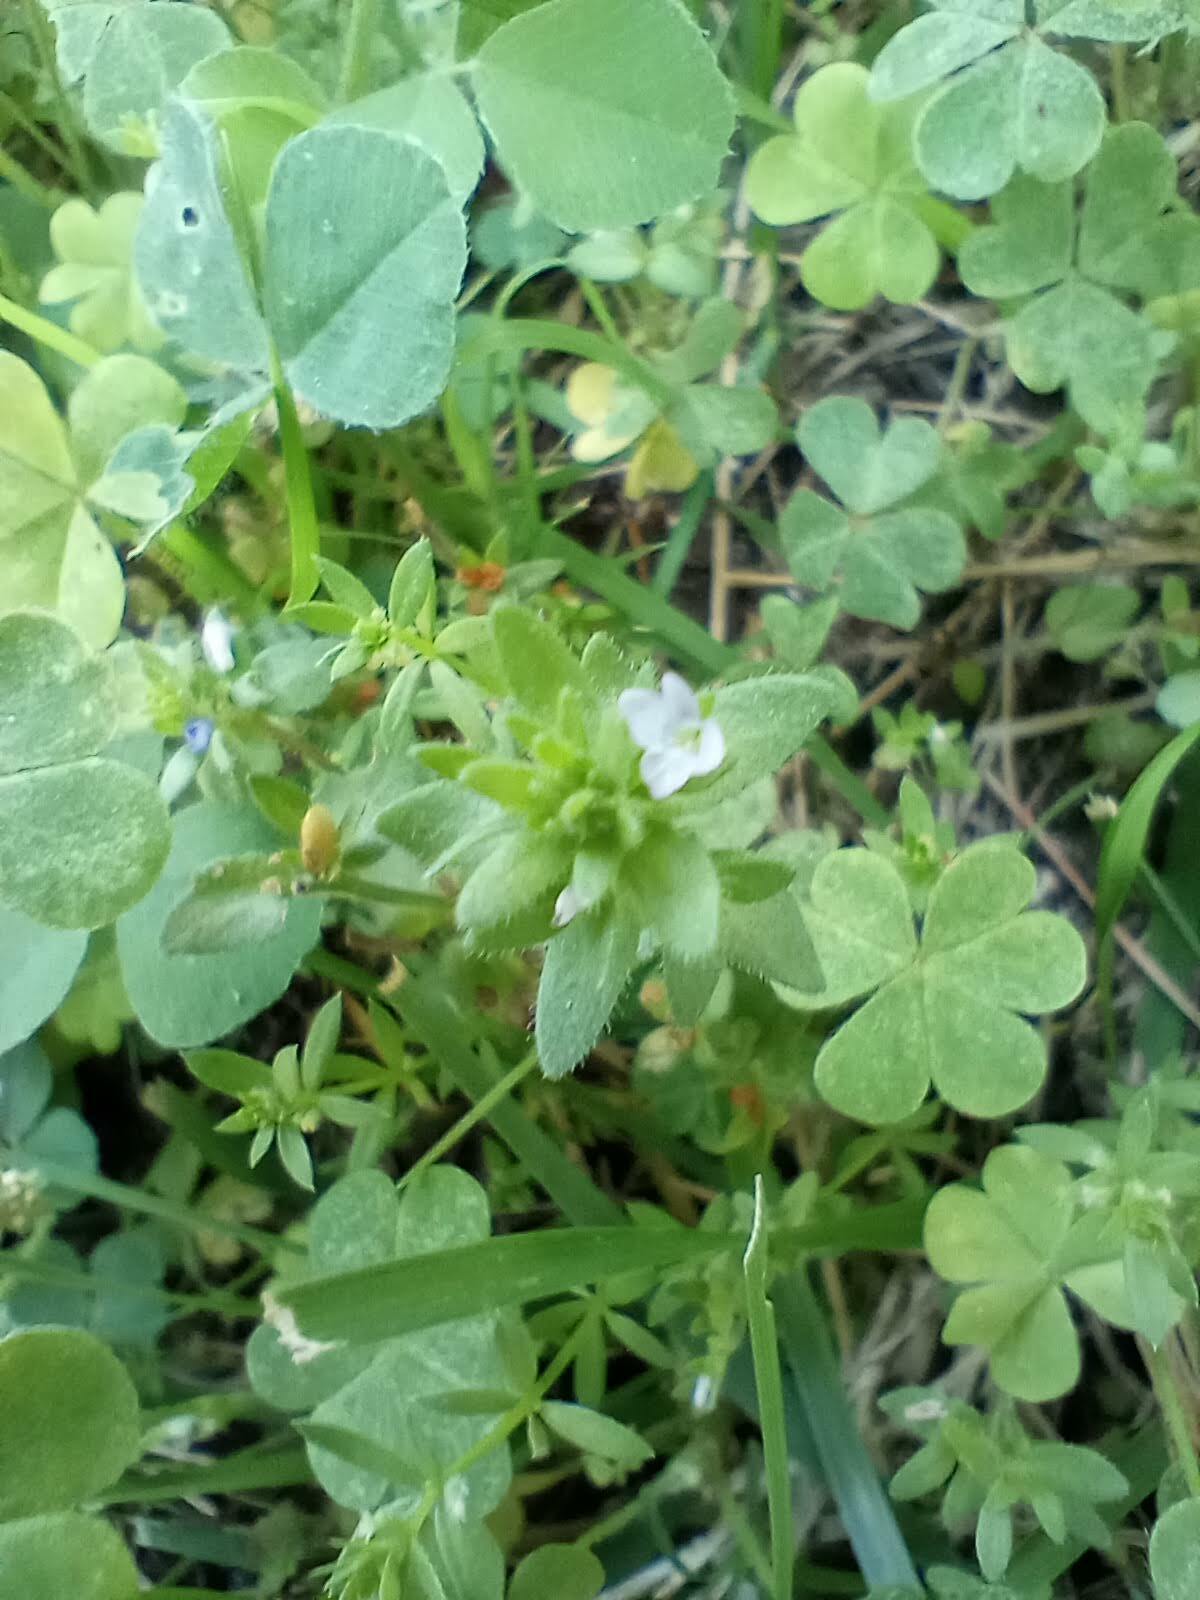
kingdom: Plantae
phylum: Tracheophyta
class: Magnoliopsida
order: Lamiales
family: Plantaginaceae
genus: Veronica
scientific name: Veronica arvensis
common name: Corn speedwell
